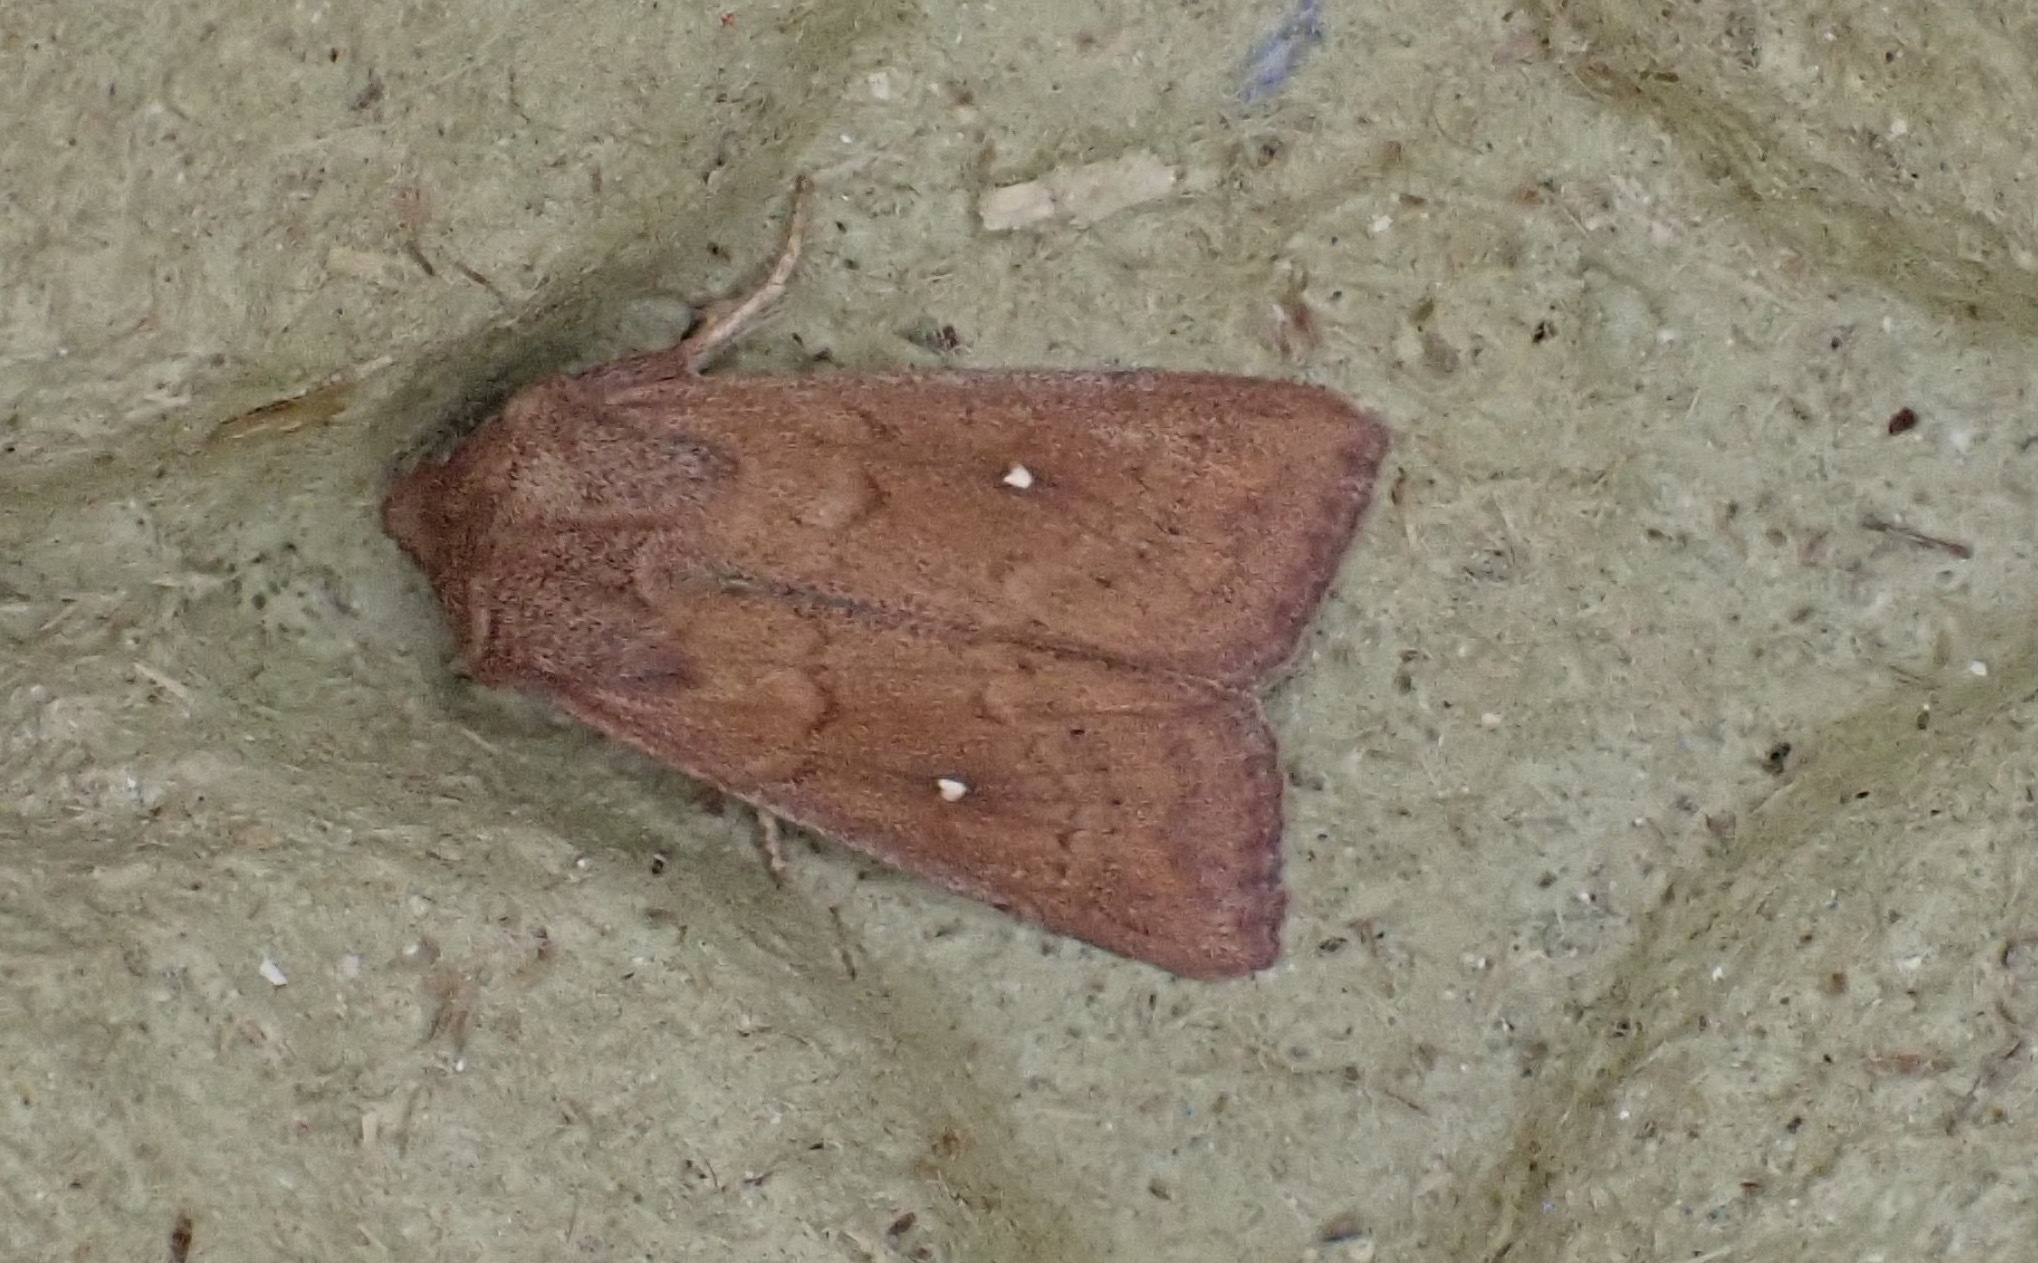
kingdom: Animalia
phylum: Arthropoda
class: Insecta
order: Lepidoptera
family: Noctuidae
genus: Mythimna
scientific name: Mythimna albipuncta
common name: White-point
